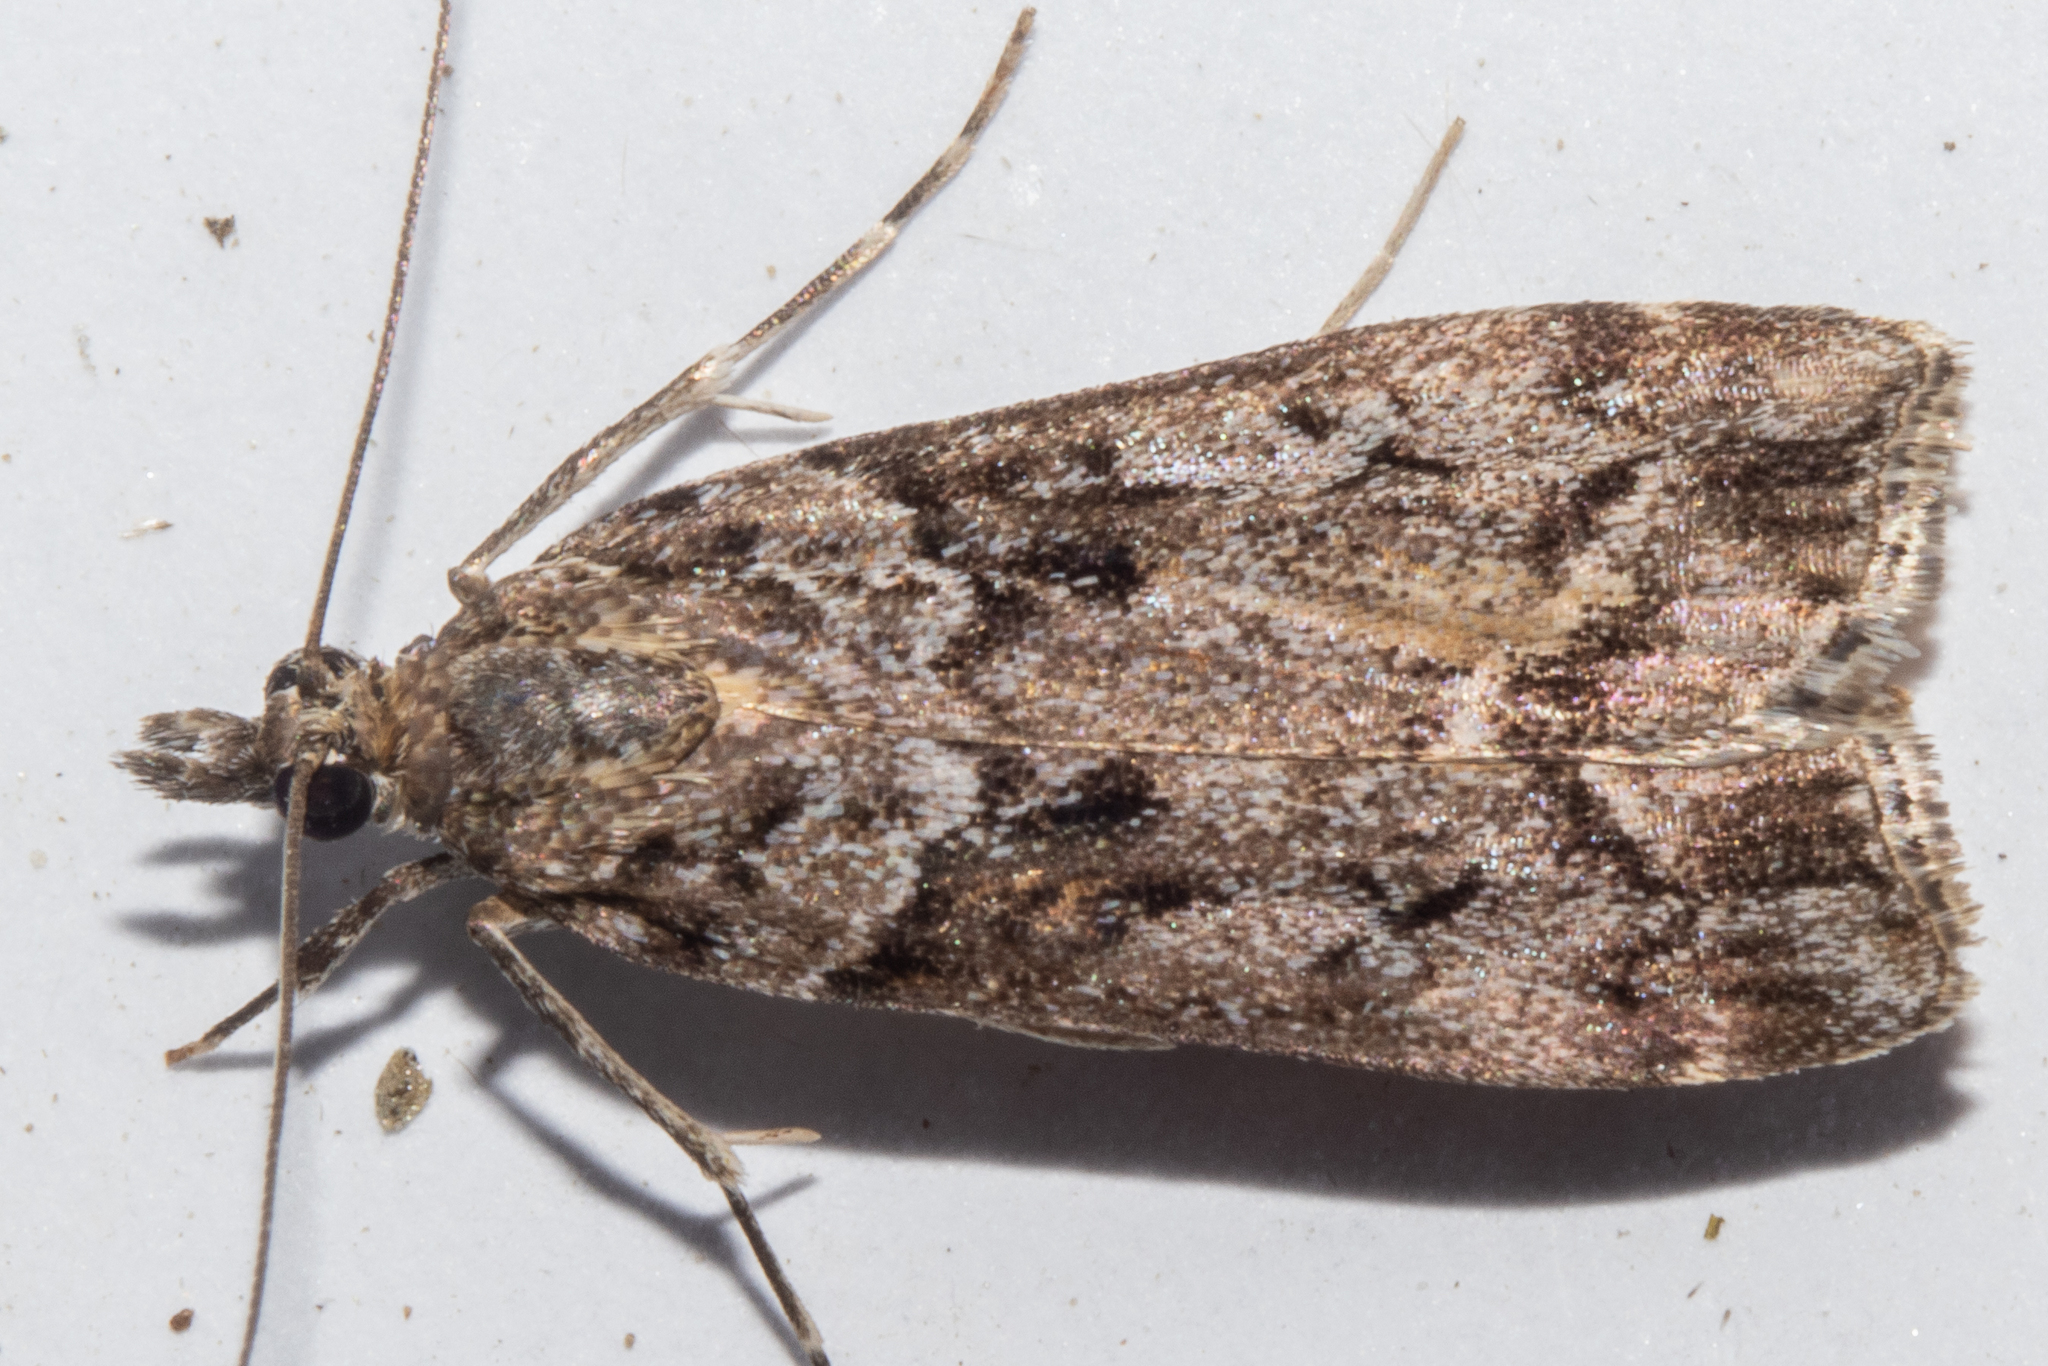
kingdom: Animalia
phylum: Arthropoda
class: Insecta
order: Lepidoptera
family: Crambidae
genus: Eudonia
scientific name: Eudonia submarginalis
